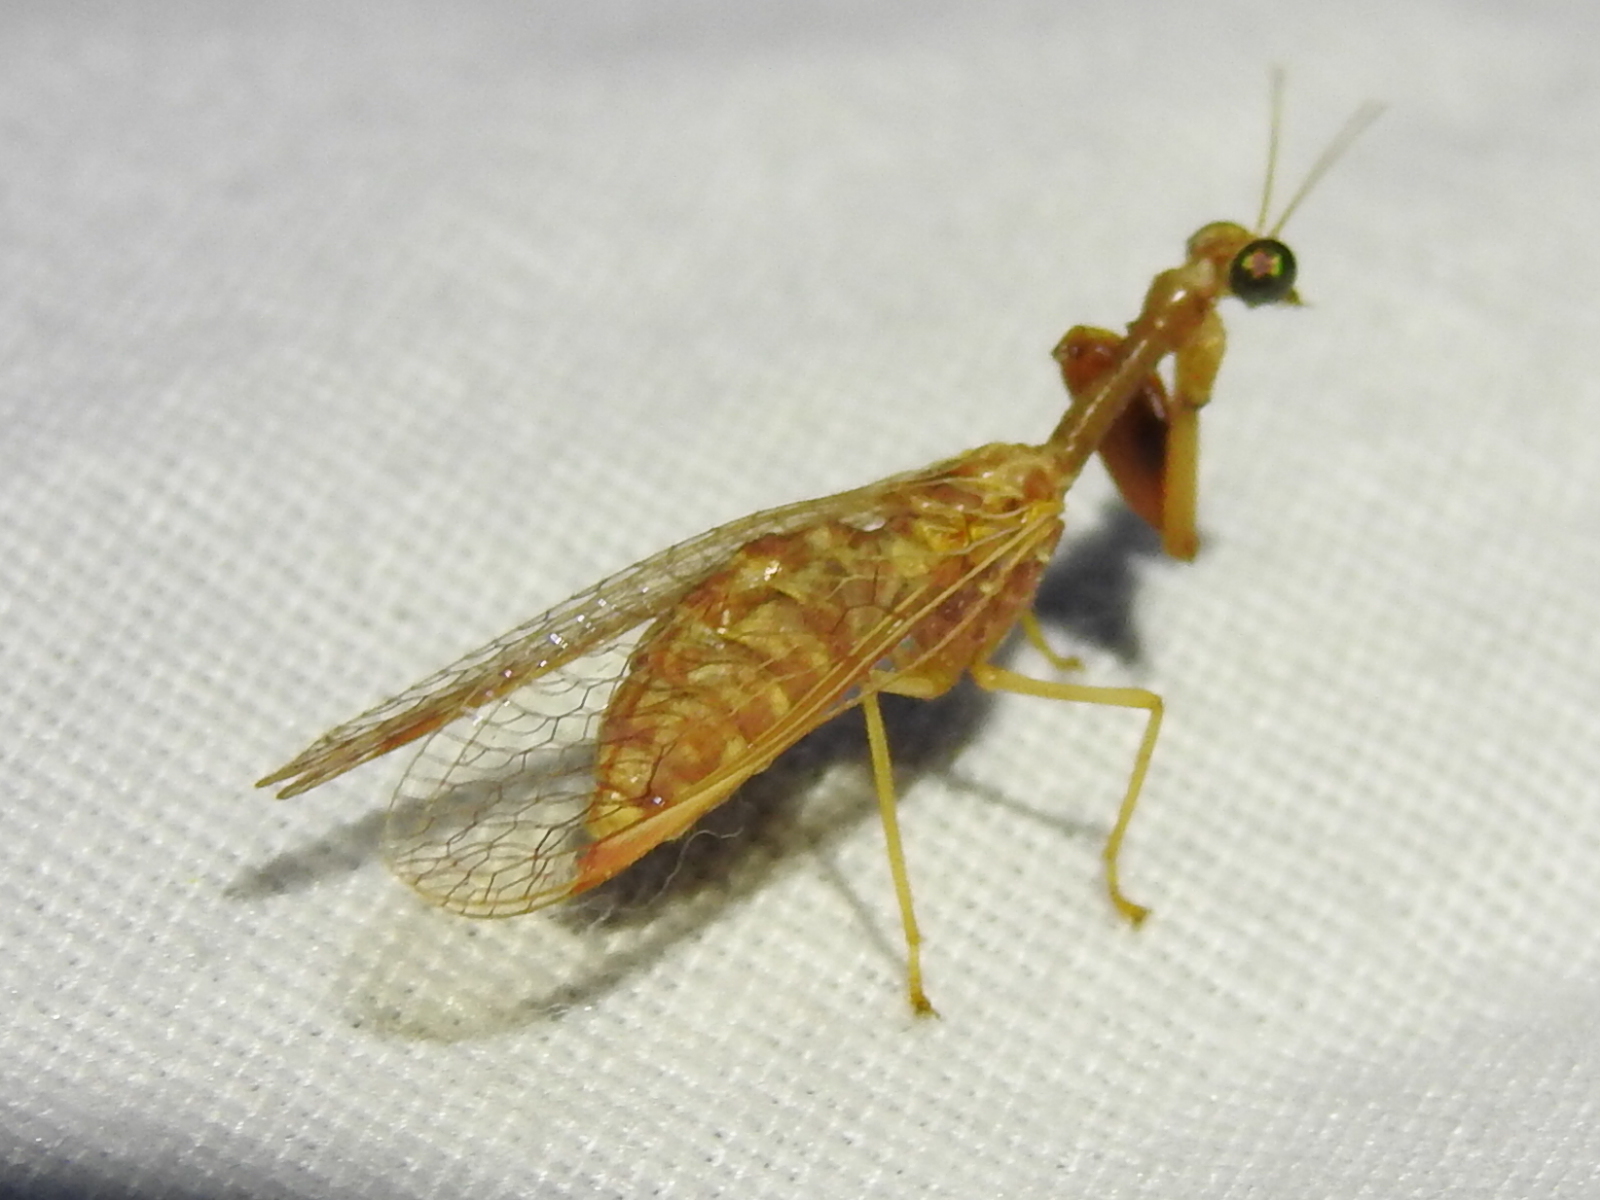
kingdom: Animalia
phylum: Arthropoda
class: Insecta
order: Neuroptera
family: Mantispidae
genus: Dicromantispa
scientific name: Dicromantispa sayi
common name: Say's mantidfly
